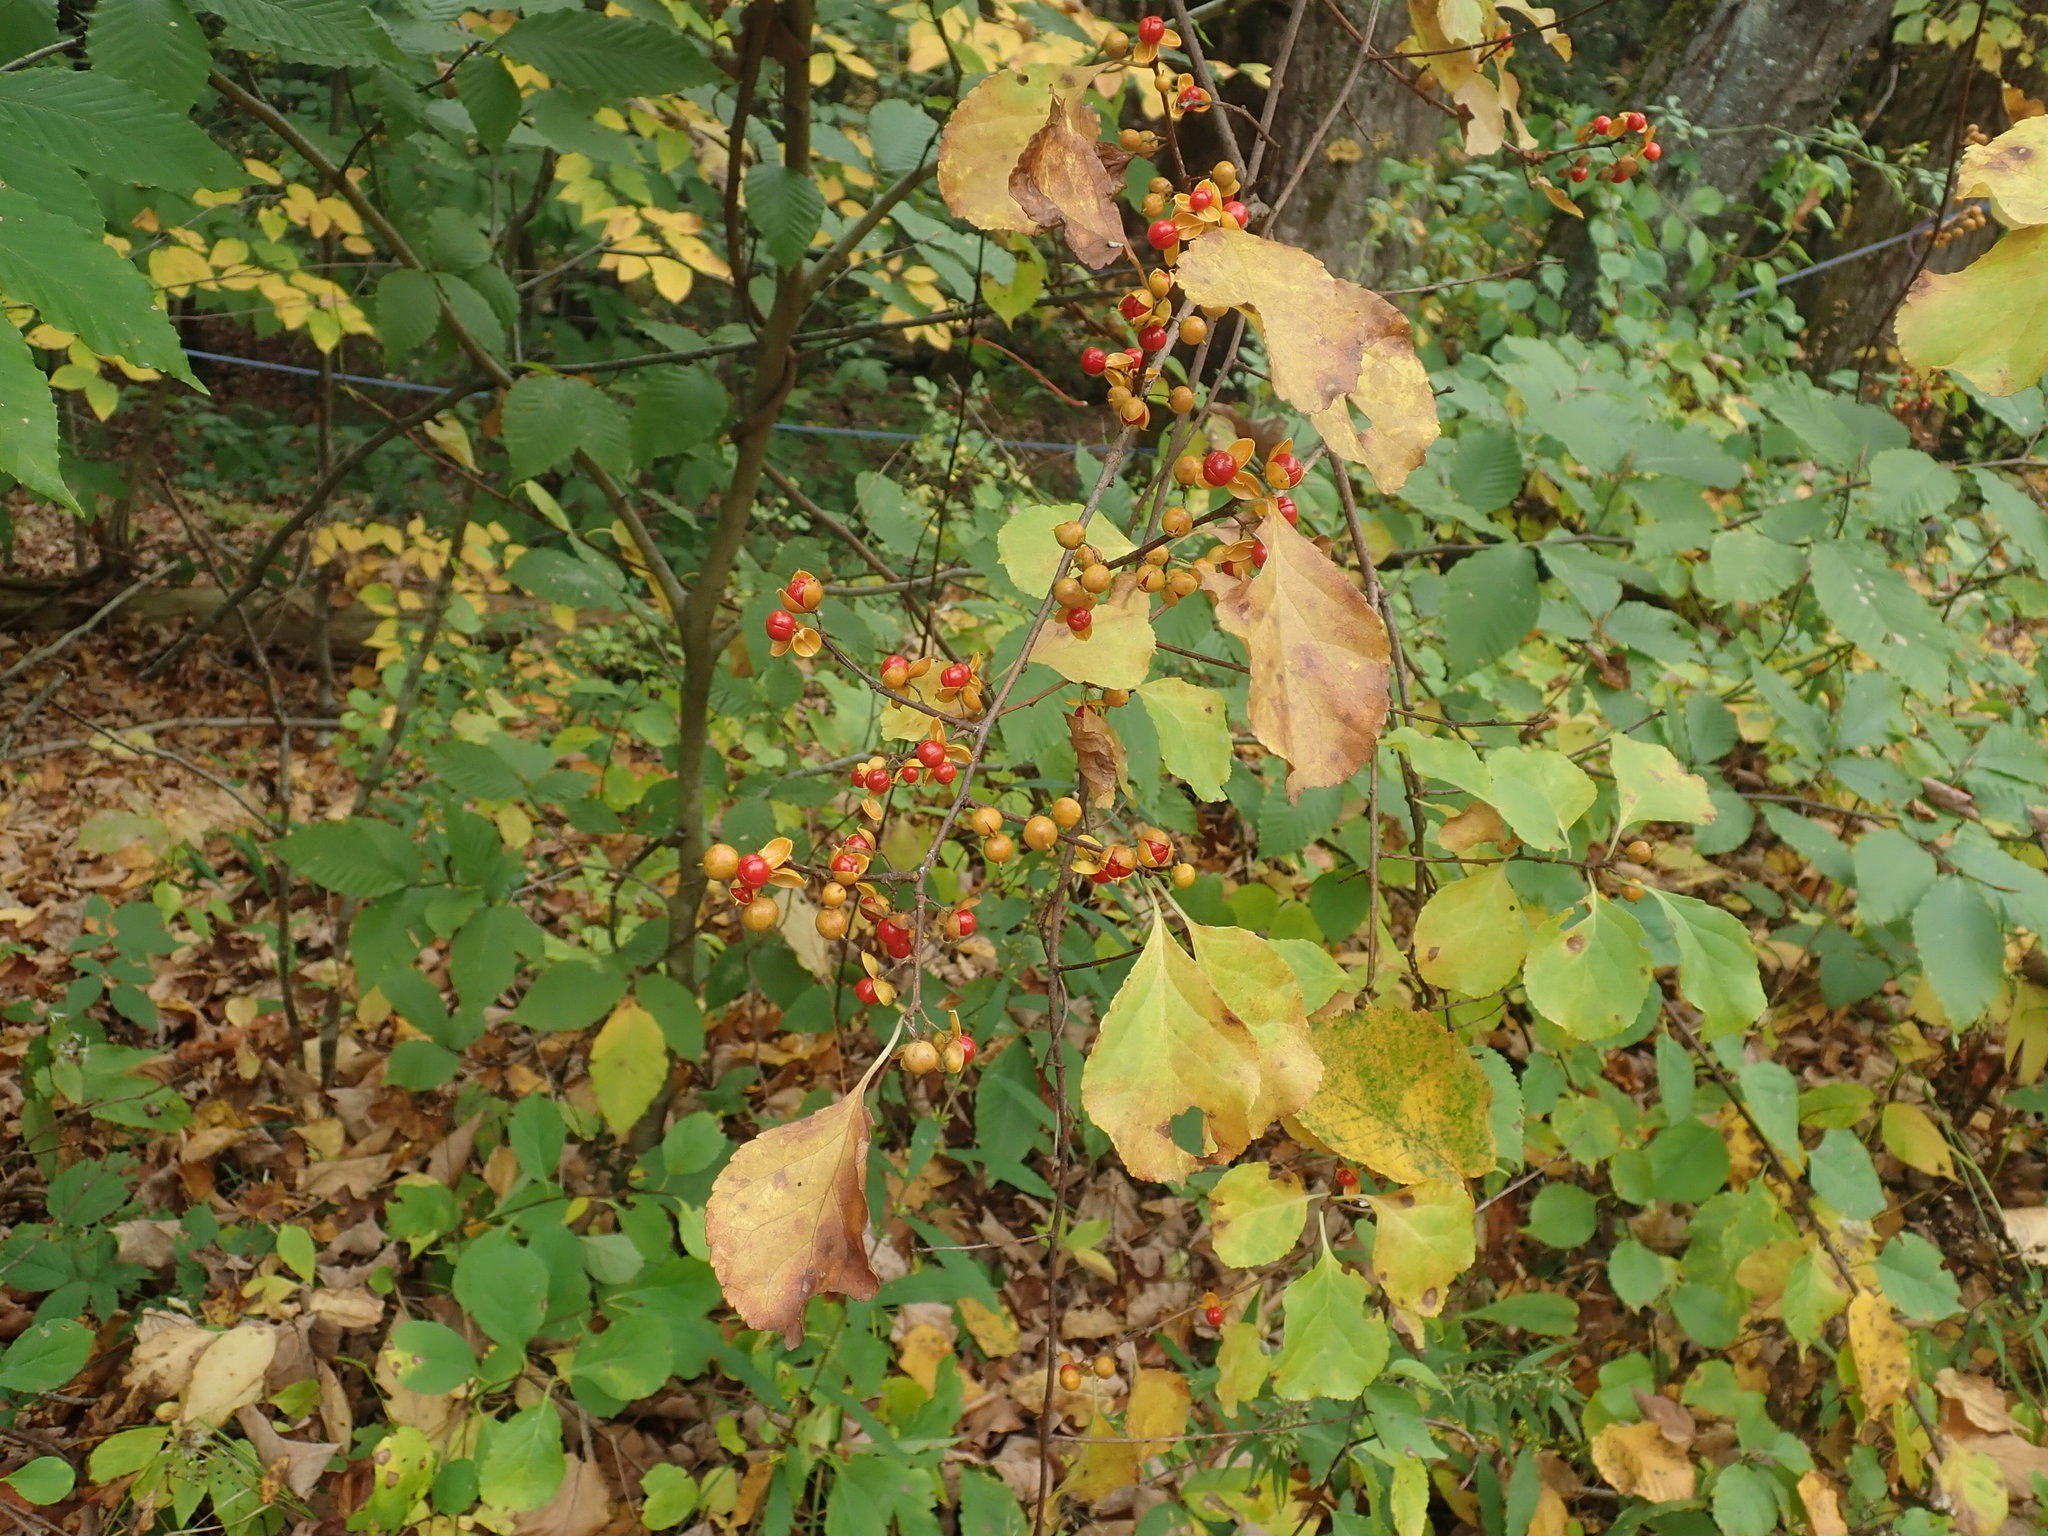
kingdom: Plantae
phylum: Tracheophyta
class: Magnoliopsida
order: Celastrales
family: Celastraceae
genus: Celastrus
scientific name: Celastrus orbiculatus
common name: Oriental bittersweet
